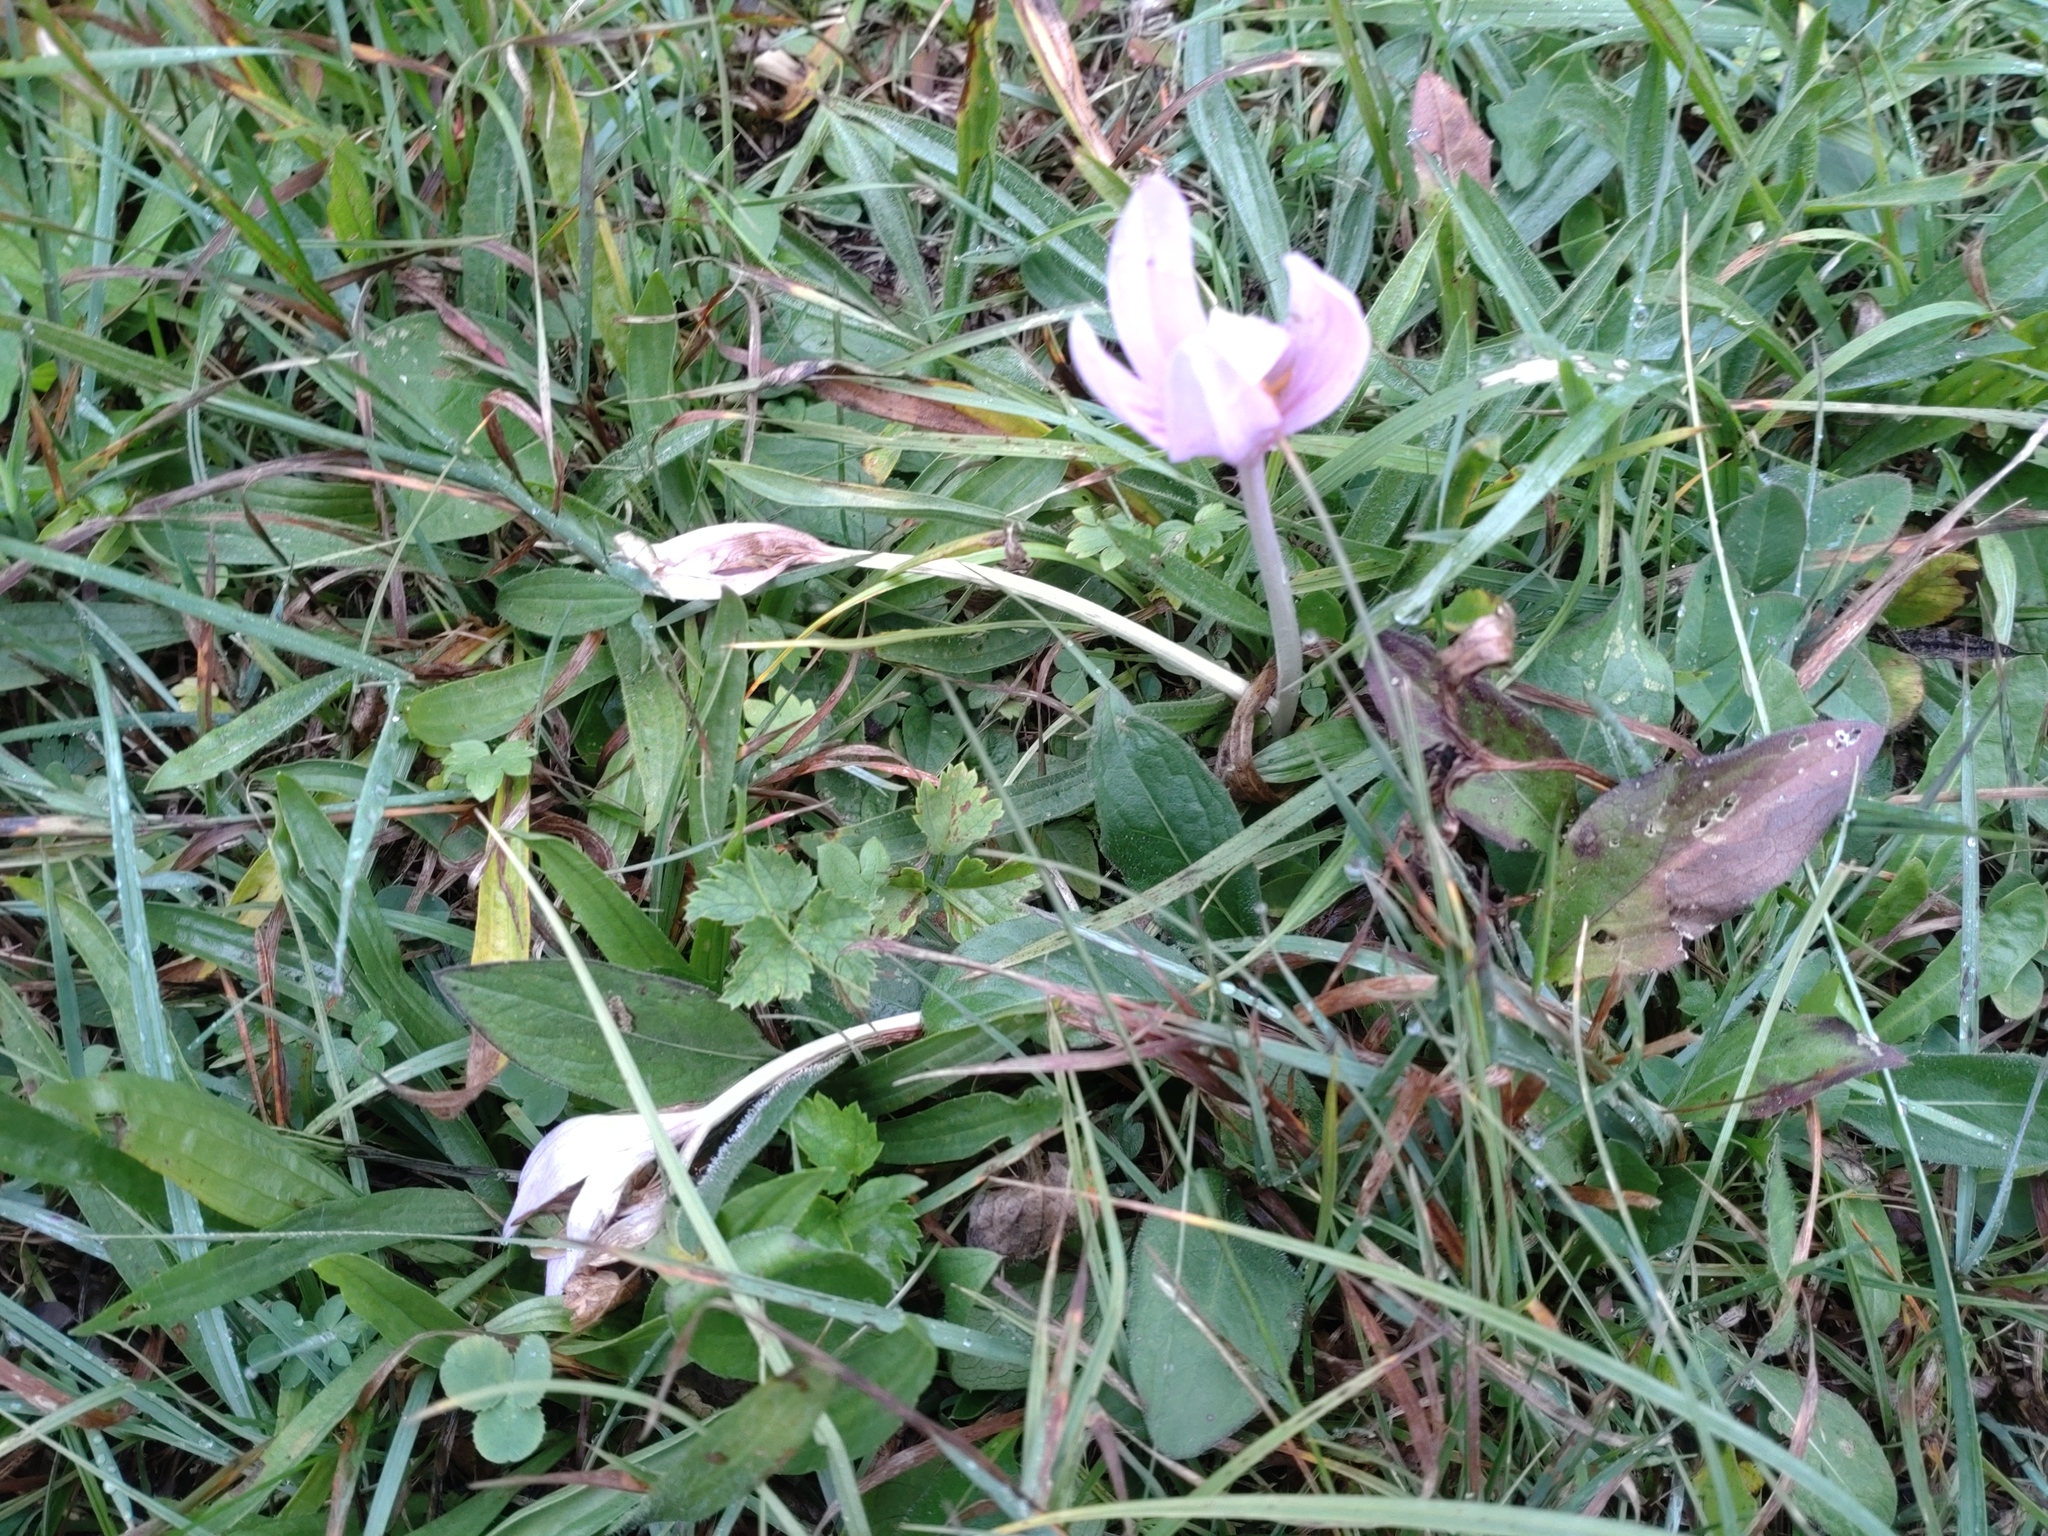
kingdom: Plantae
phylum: Tracheophyta
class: Liliopsida
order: Liliales
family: Colchicaceae
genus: Colchicum
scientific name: Colchicum autumnale
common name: Autumn crocus
